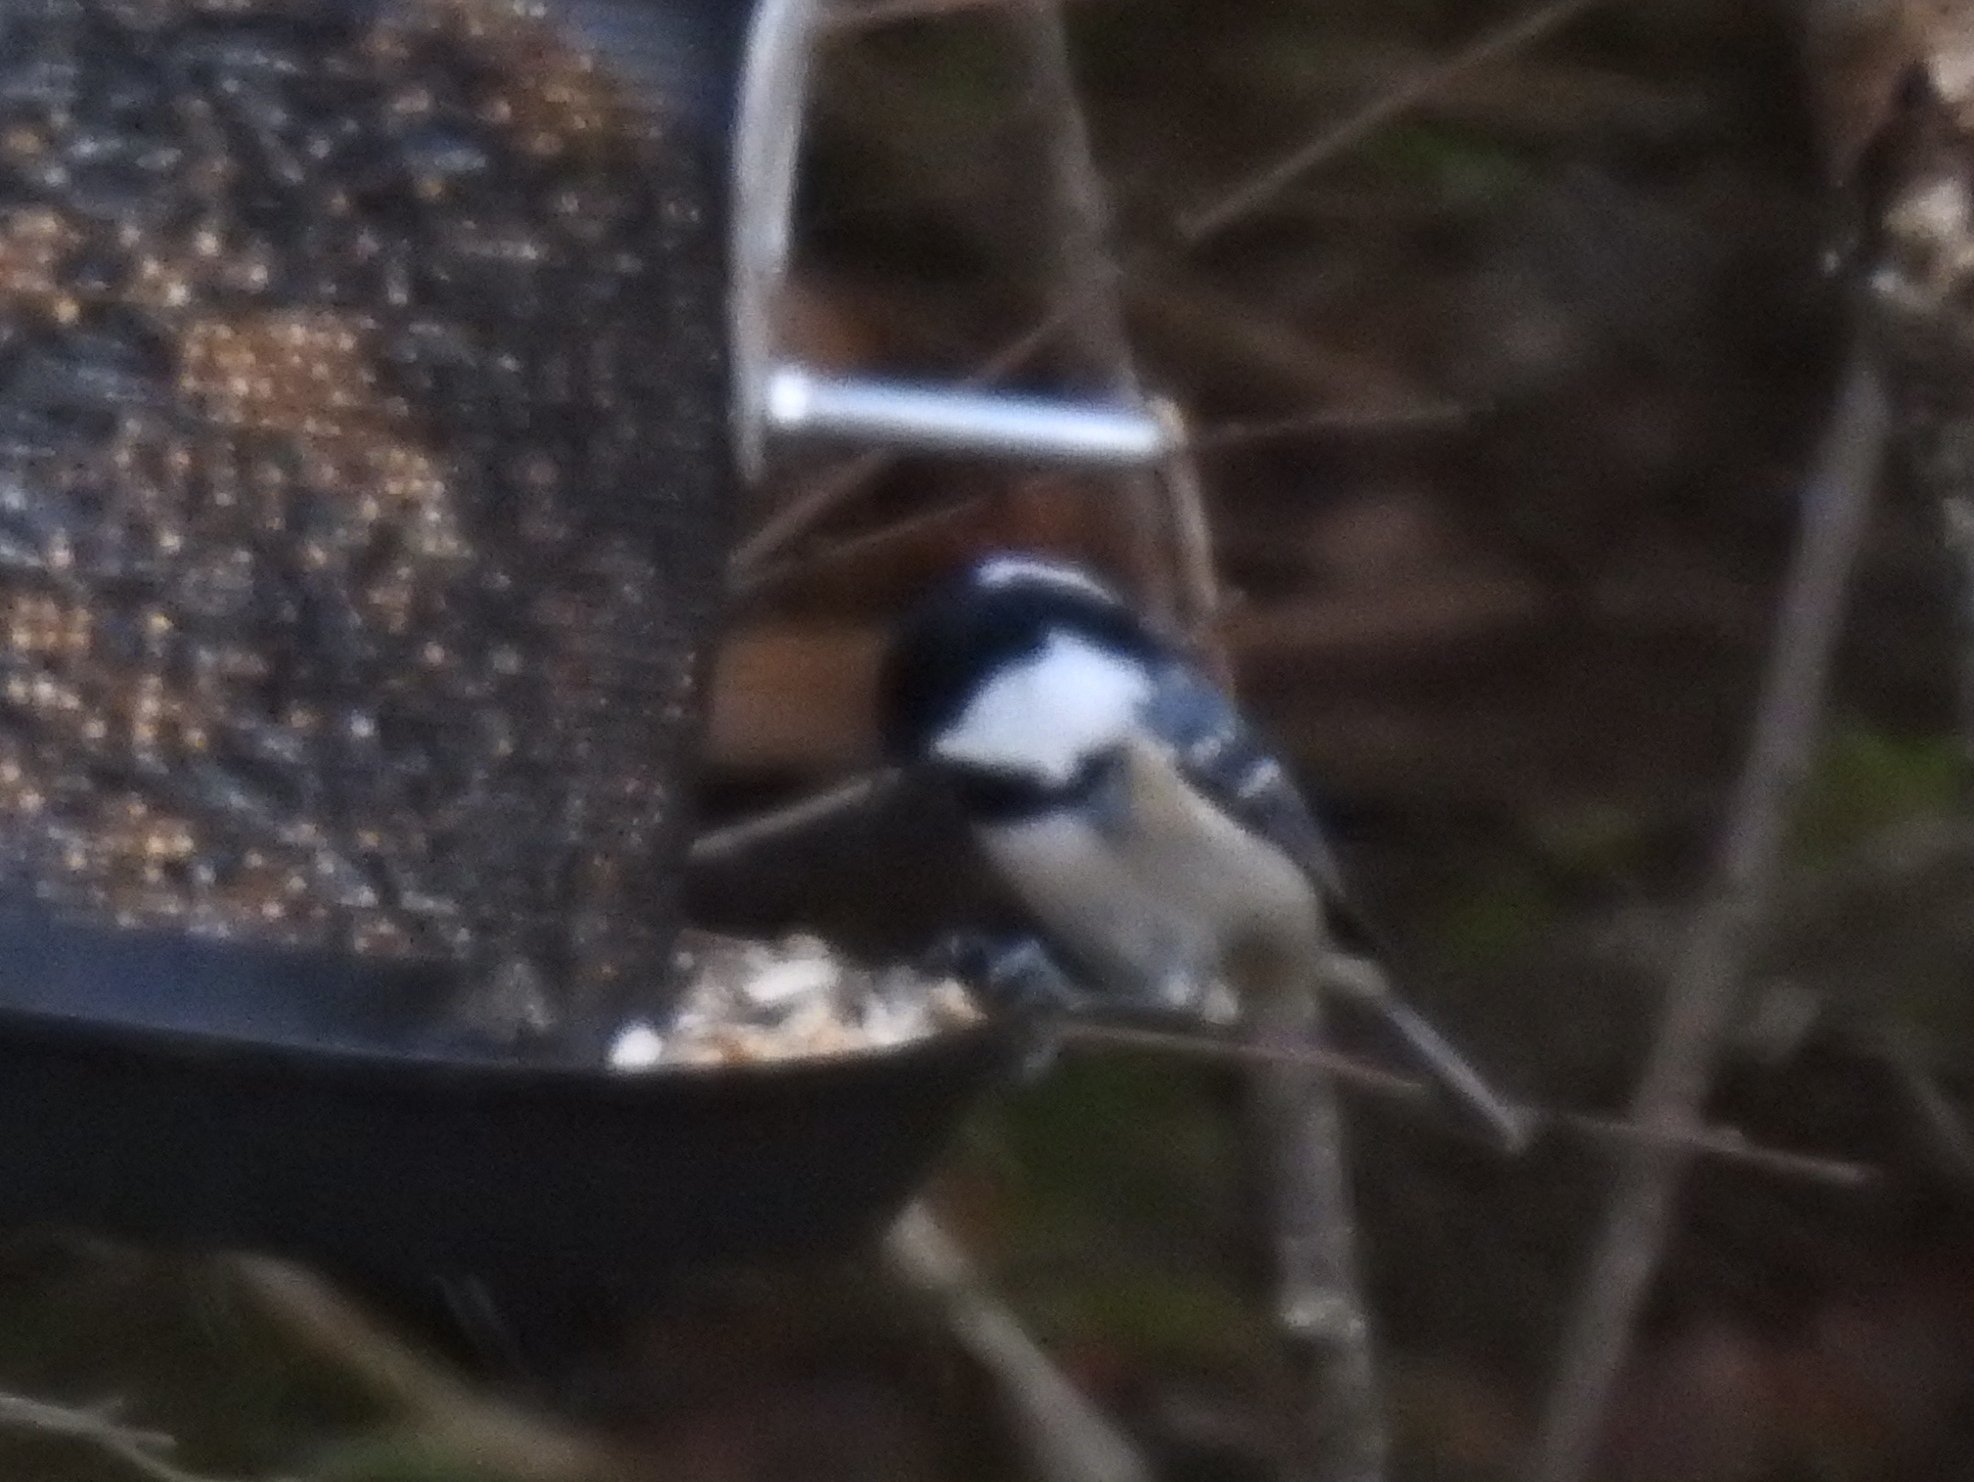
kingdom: Animalia
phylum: Chordata
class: Aves
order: Passeriformes
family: Paridae
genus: Periparus
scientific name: Periparus ater
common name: Coal tit
